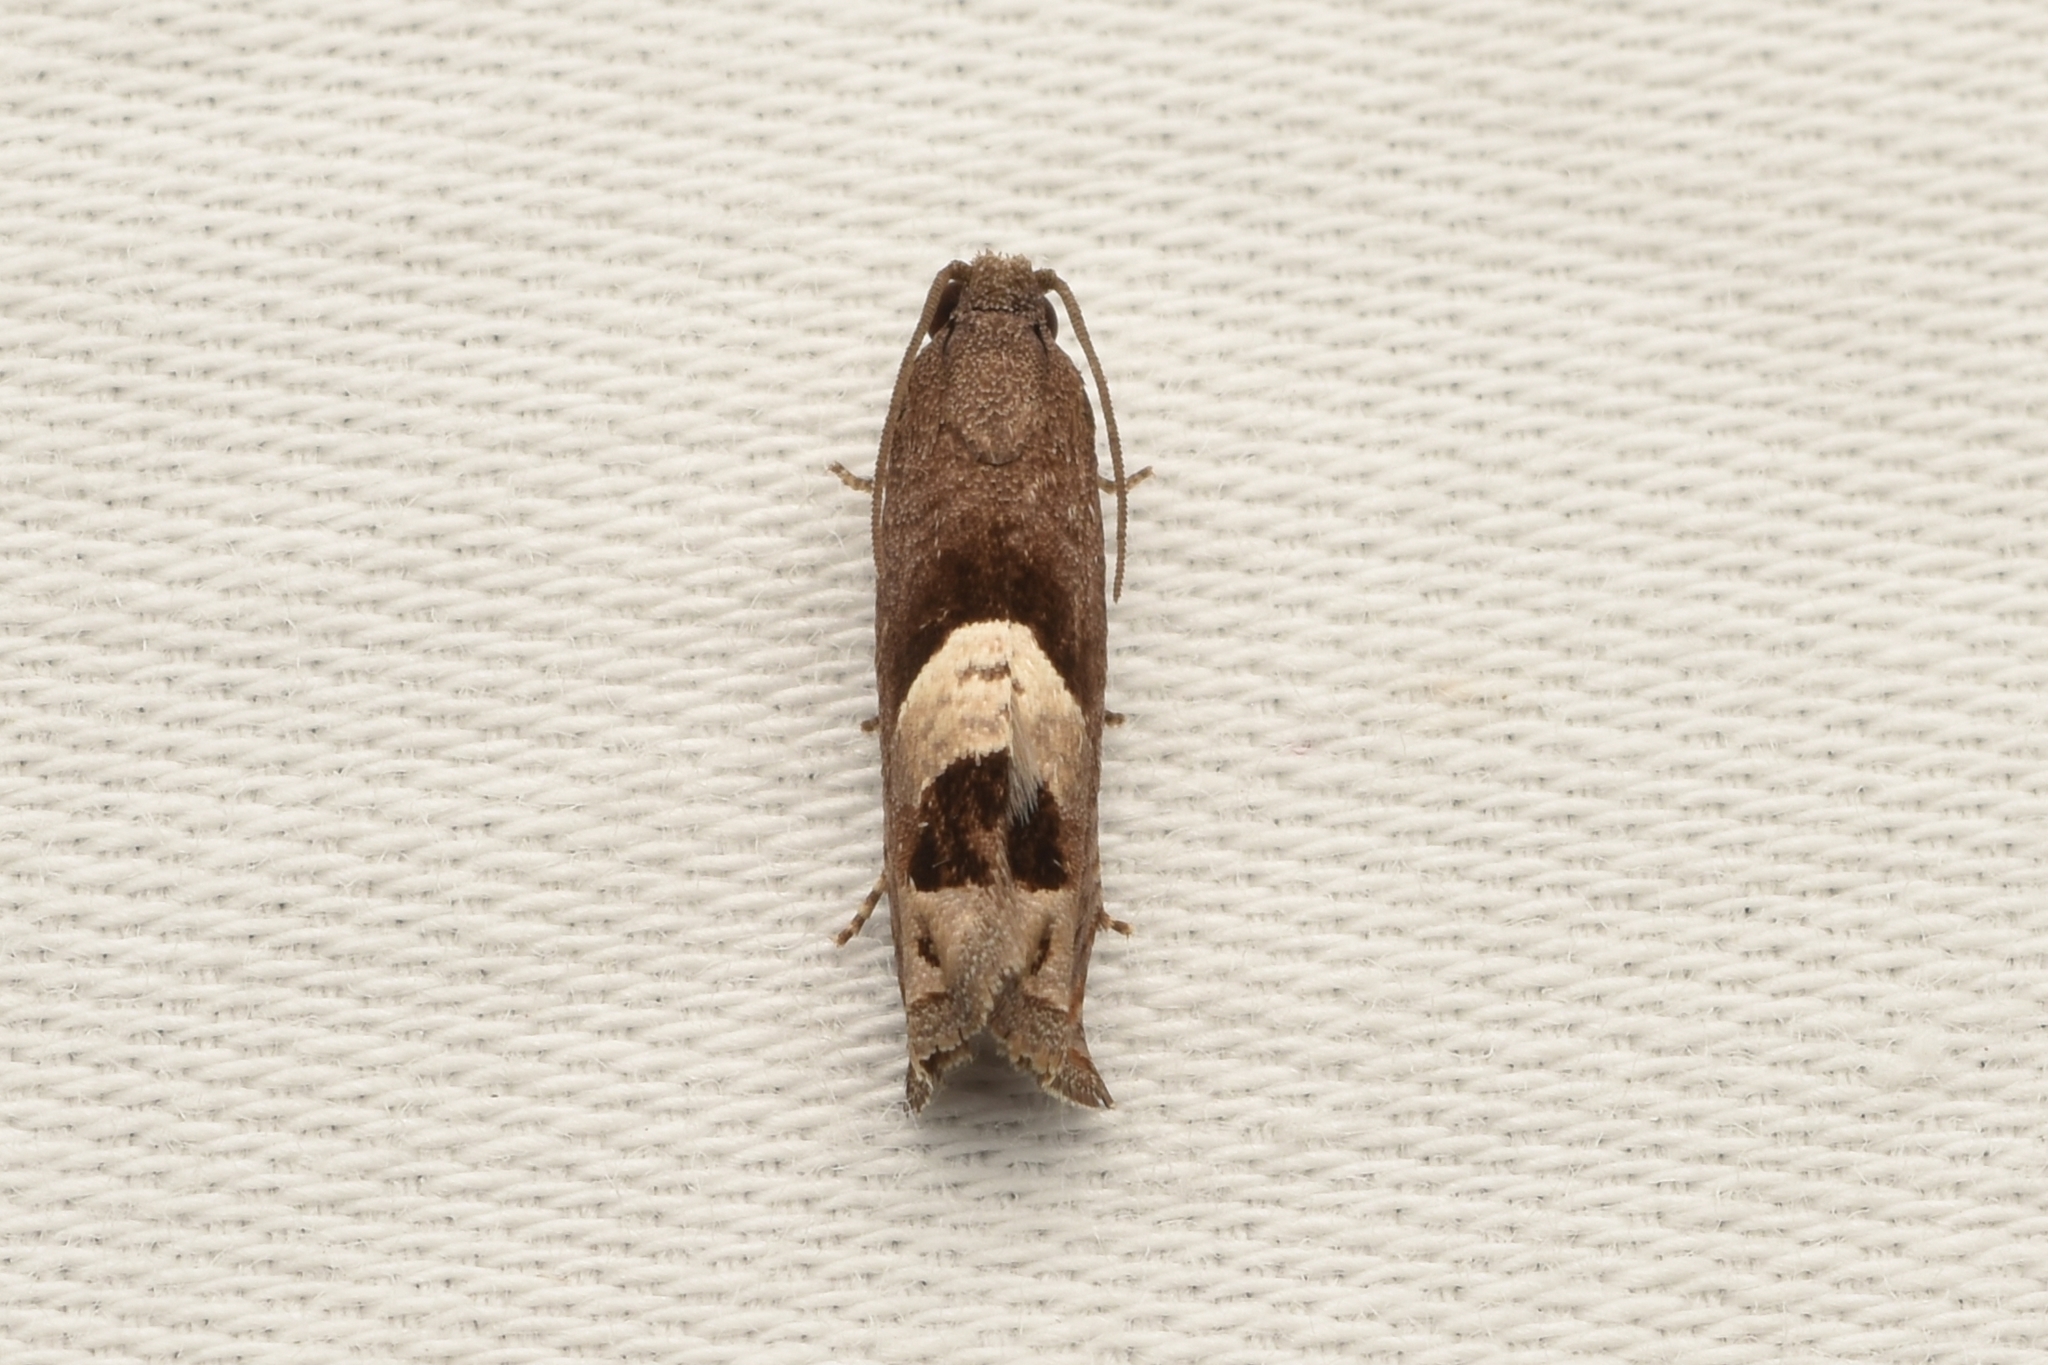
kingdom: Animalia
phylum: Arthropoda
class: Insecta
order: Lepidoptera
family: Tortricidae
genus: Epiblema
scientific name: Epiblema boxcana
